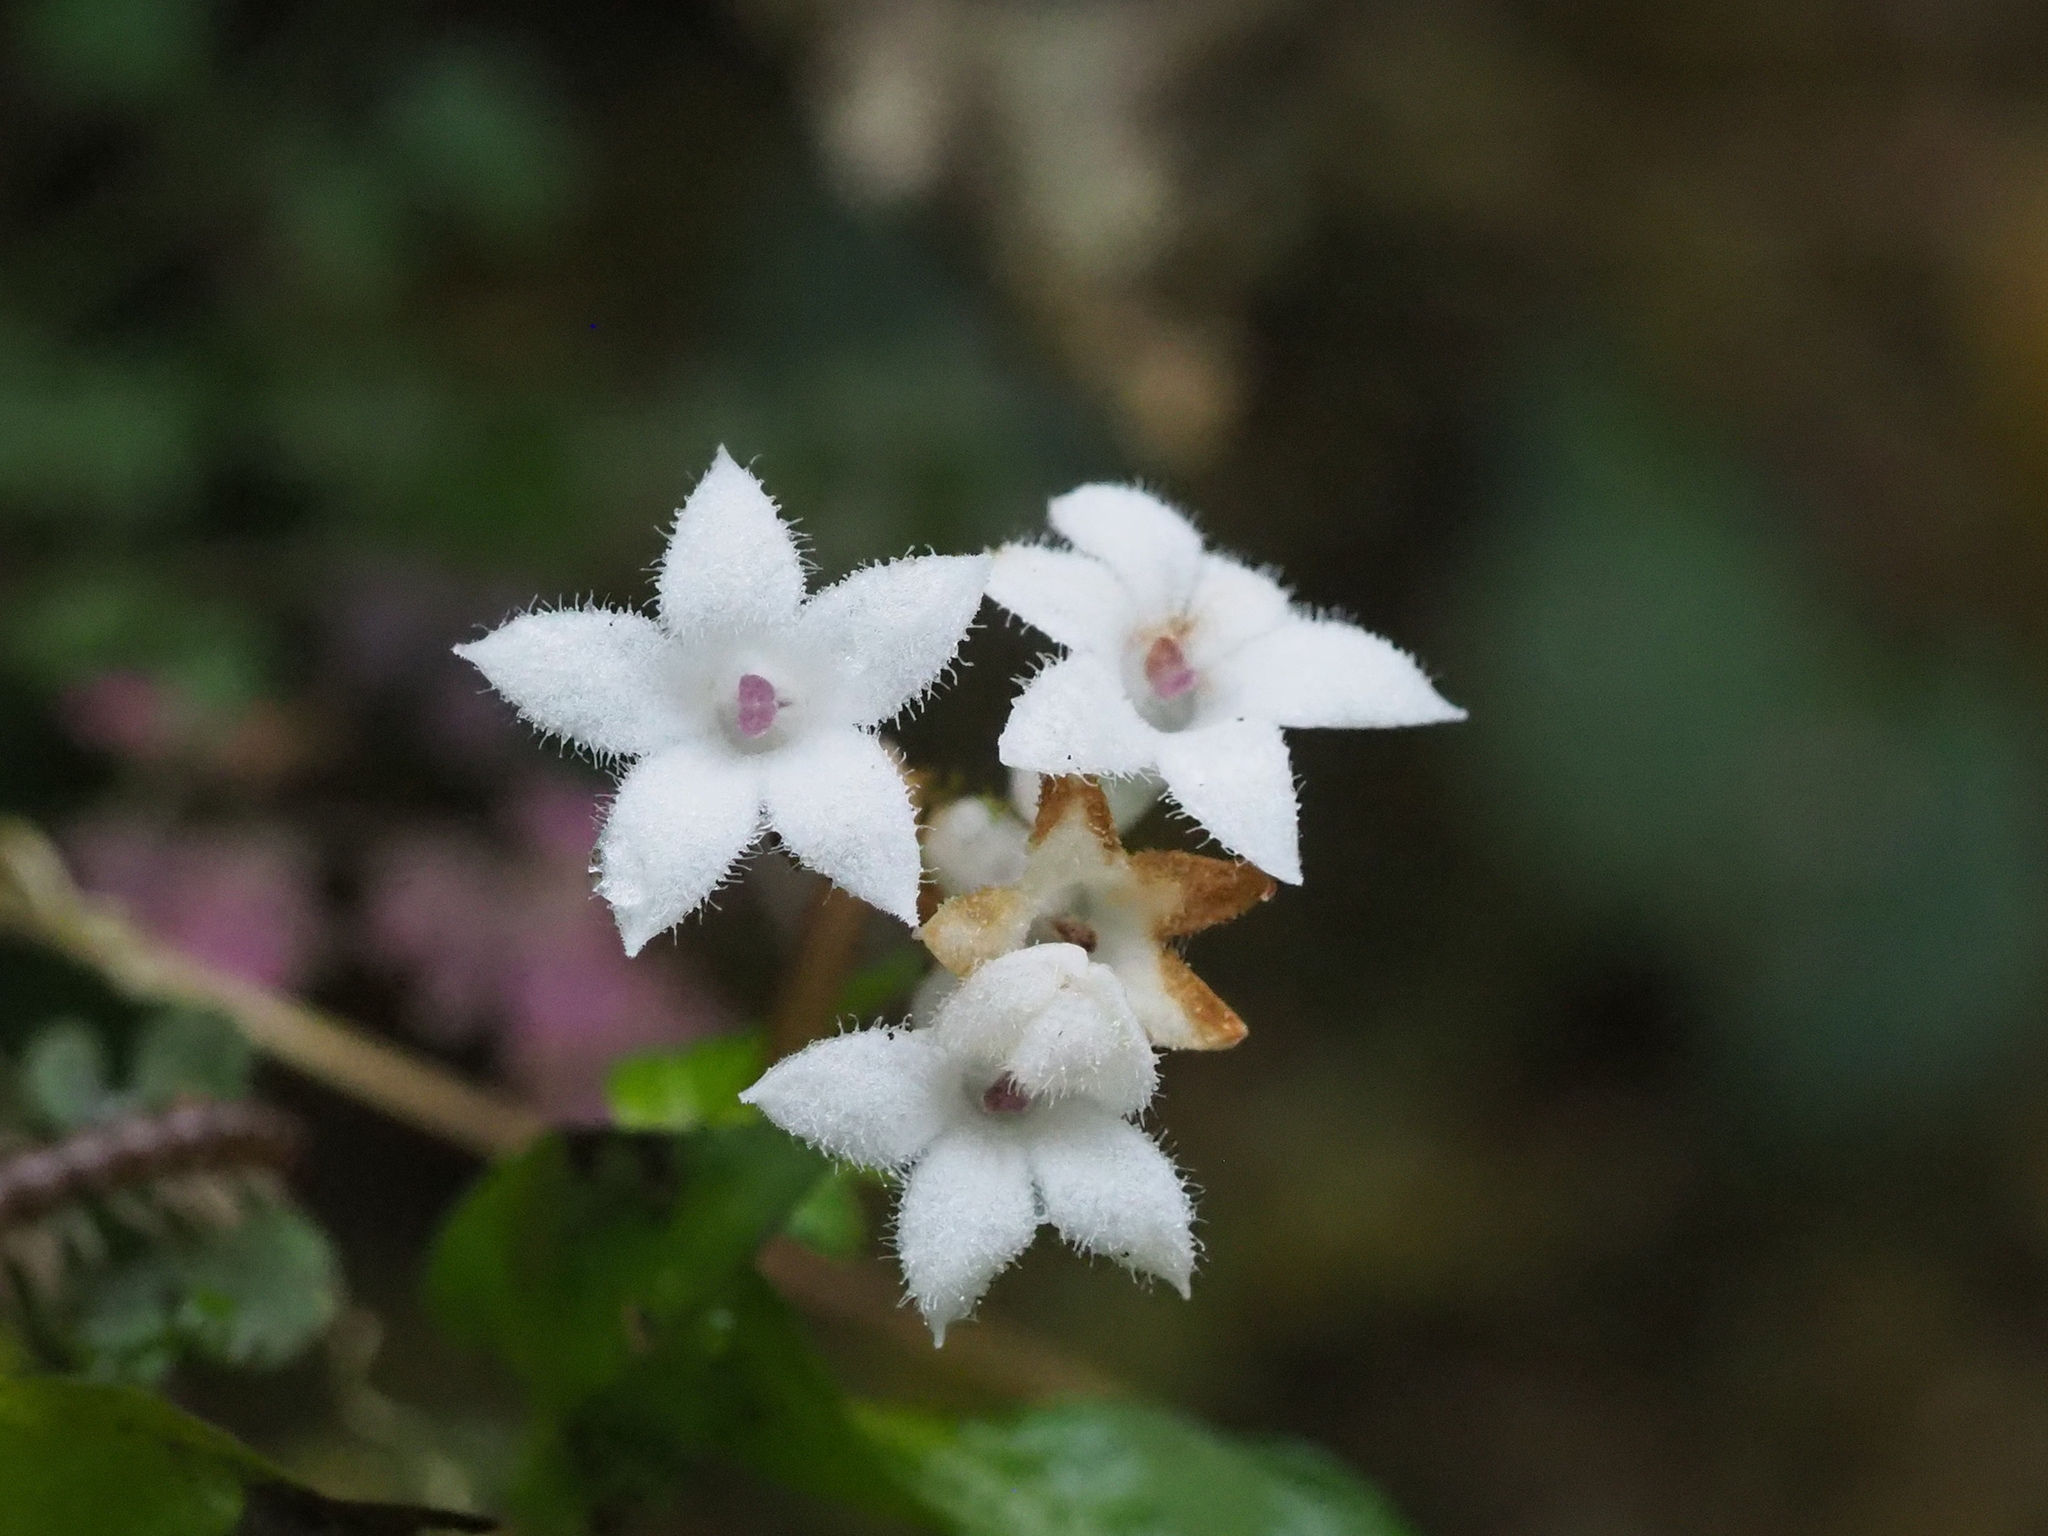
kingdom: Plantae
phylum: Tracheophyta
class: Magnoliopsida
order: Gentianales
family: Rubiaceae
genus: Ophiorrhiza
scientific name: Ophiorrhiza japonica
